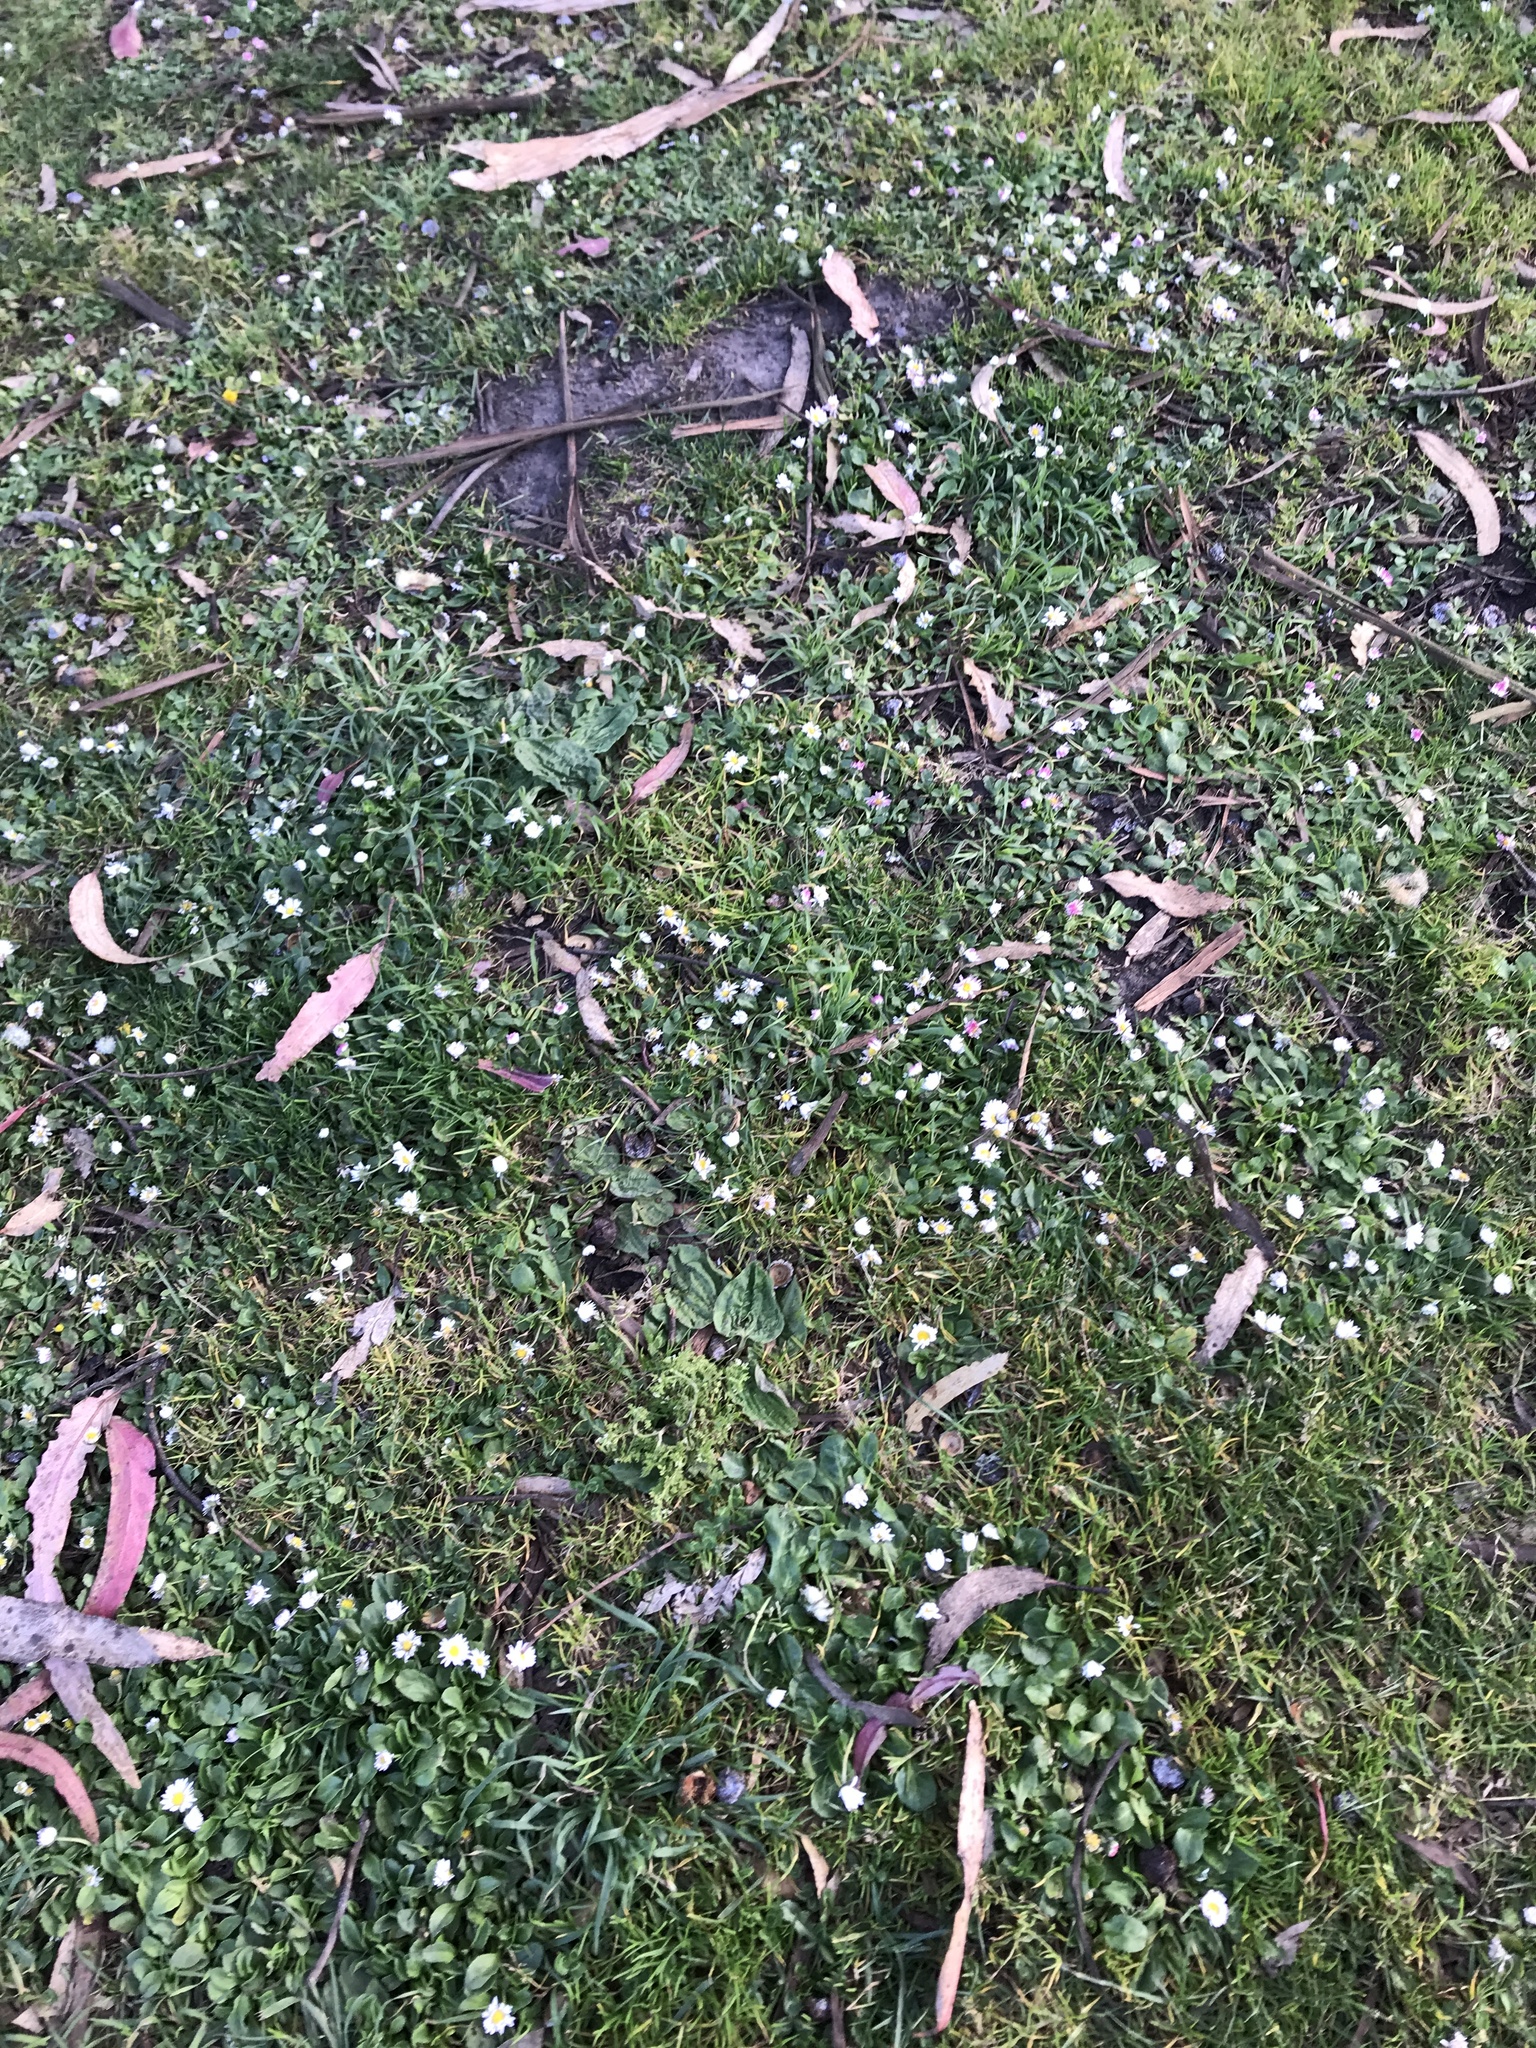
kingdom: Plantae
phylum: Tracheophyta
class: Magnoliopsida
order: Asterales
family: Asteraceae
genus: Bellis
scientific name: Bellis perennis
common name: Lawndaisy
